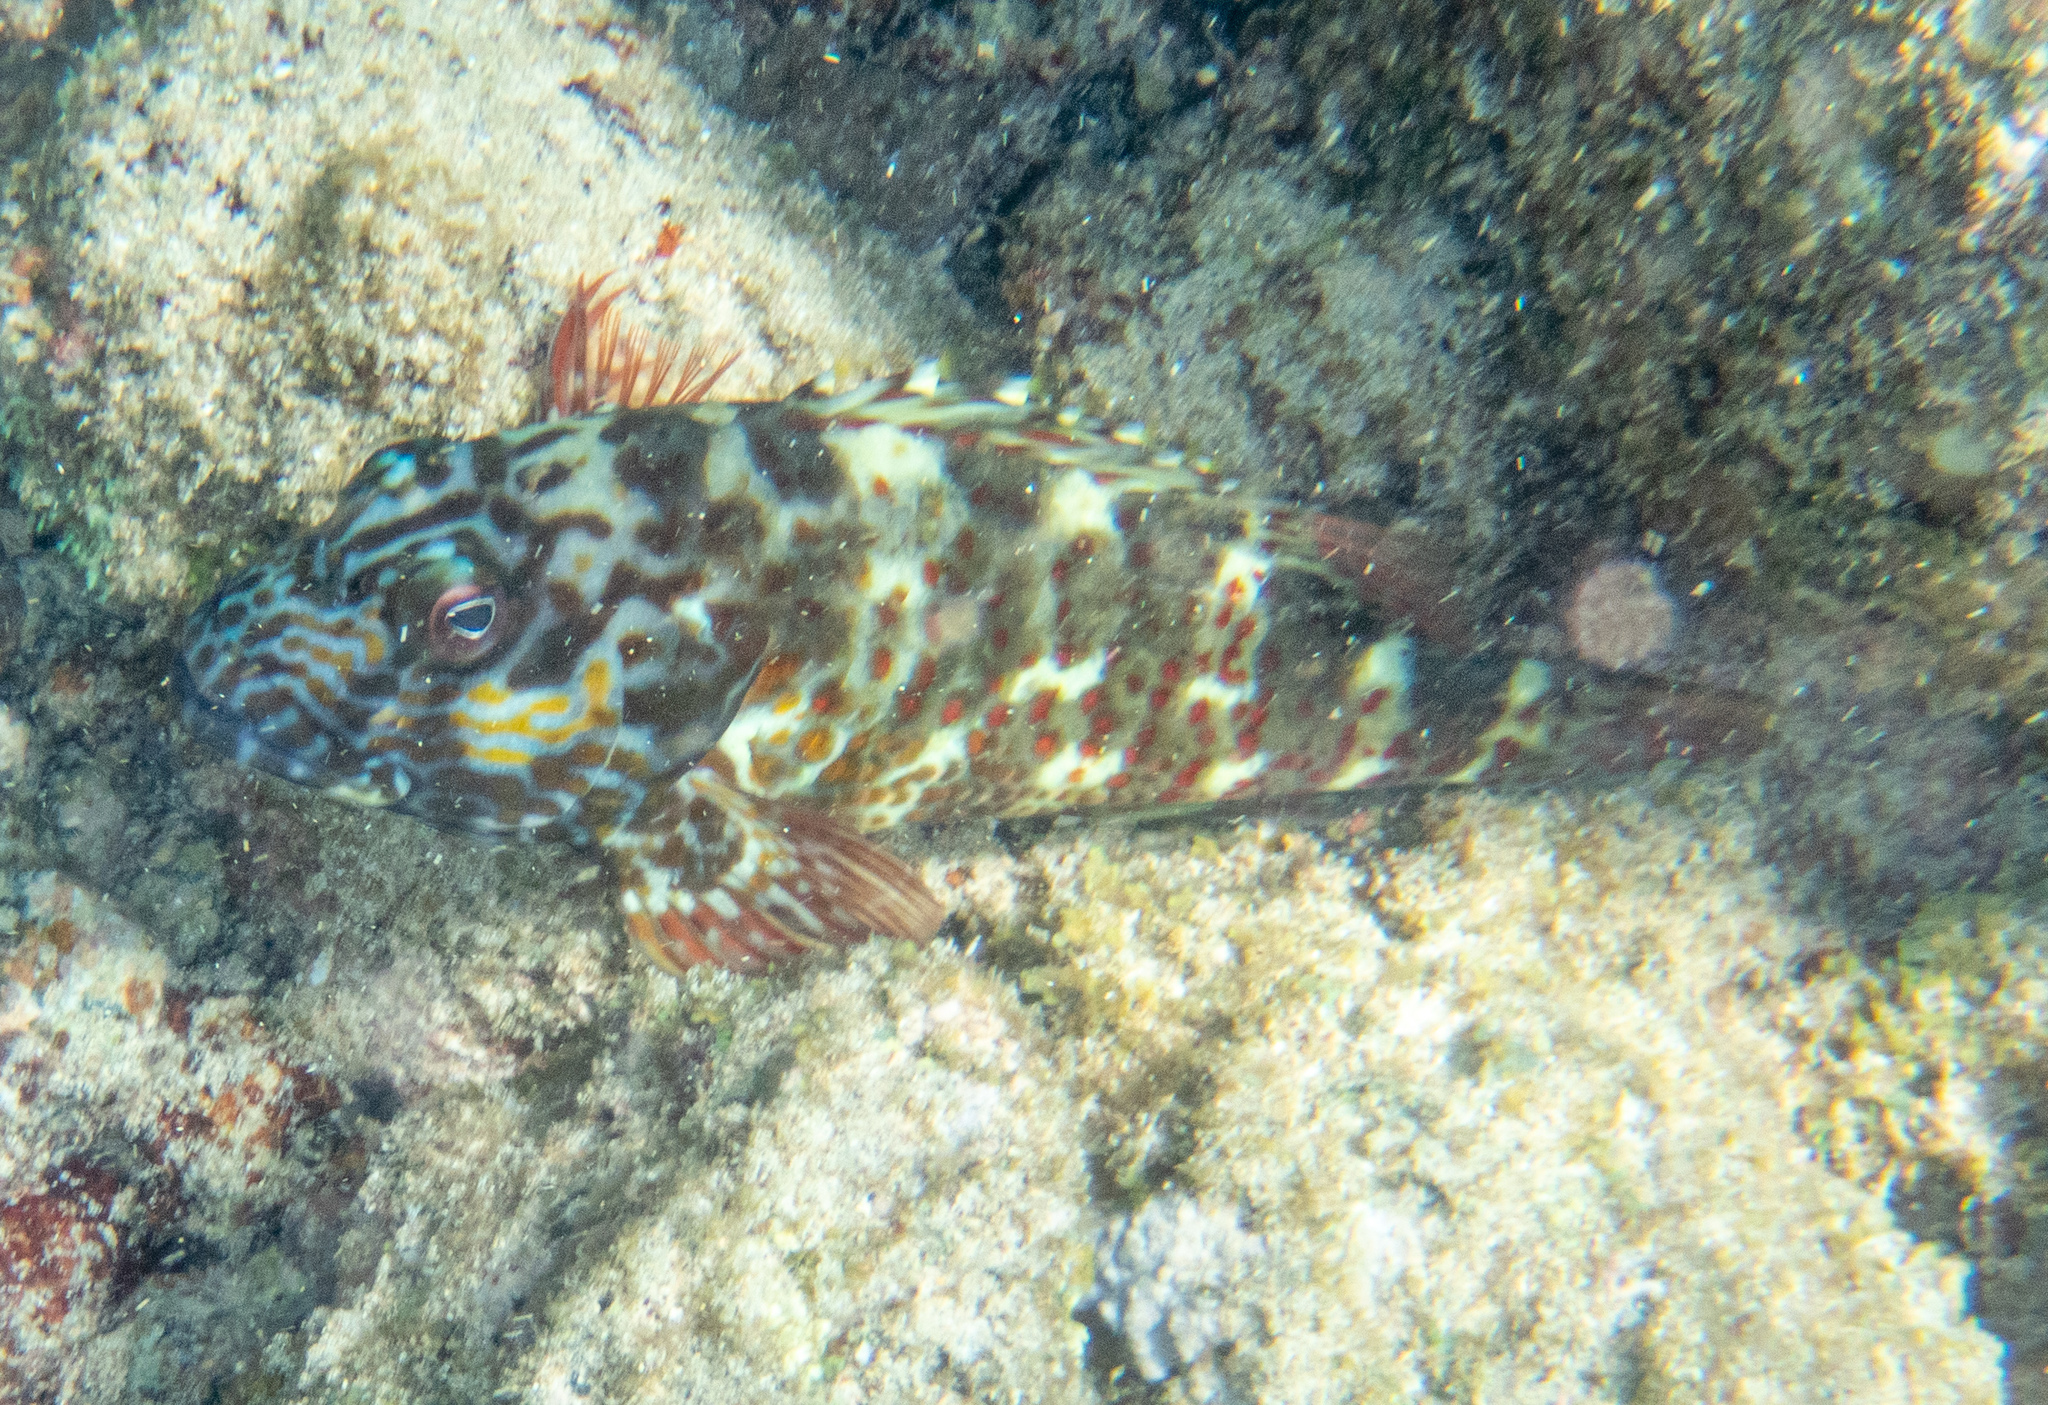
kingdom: Animalia
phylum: Chordata
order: Perciformes
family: Cirrhitidae
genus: Cirrhitus
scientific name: Cirrhitus pinnulatus
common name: Stocky hawkfish
